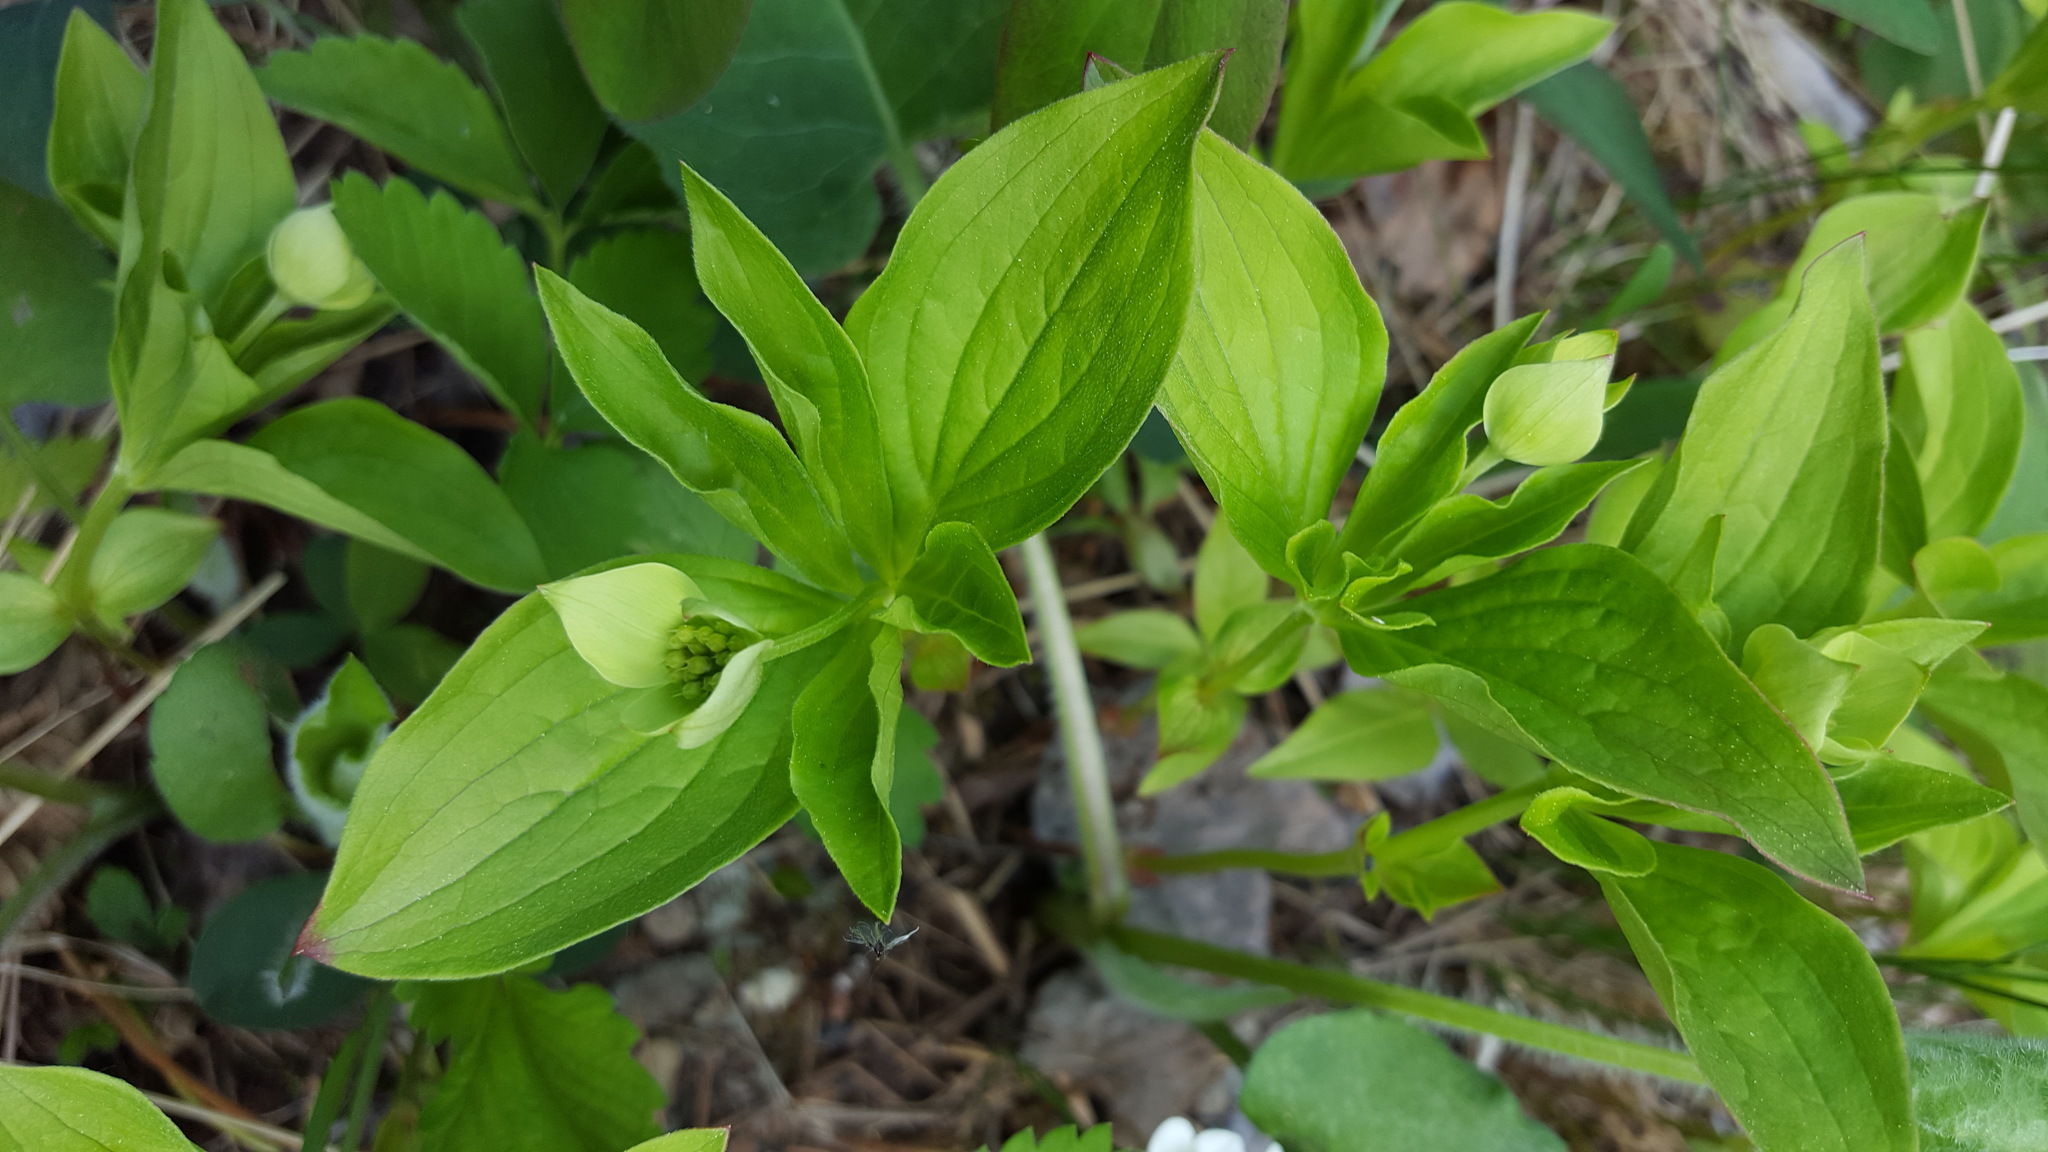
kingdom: Plantae
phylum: Tracheophyta
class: Magnoliopsida
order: Cornales
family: Cornaceae
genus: Cornus
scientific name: Cornus canadensis
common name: Creeping dogwood
